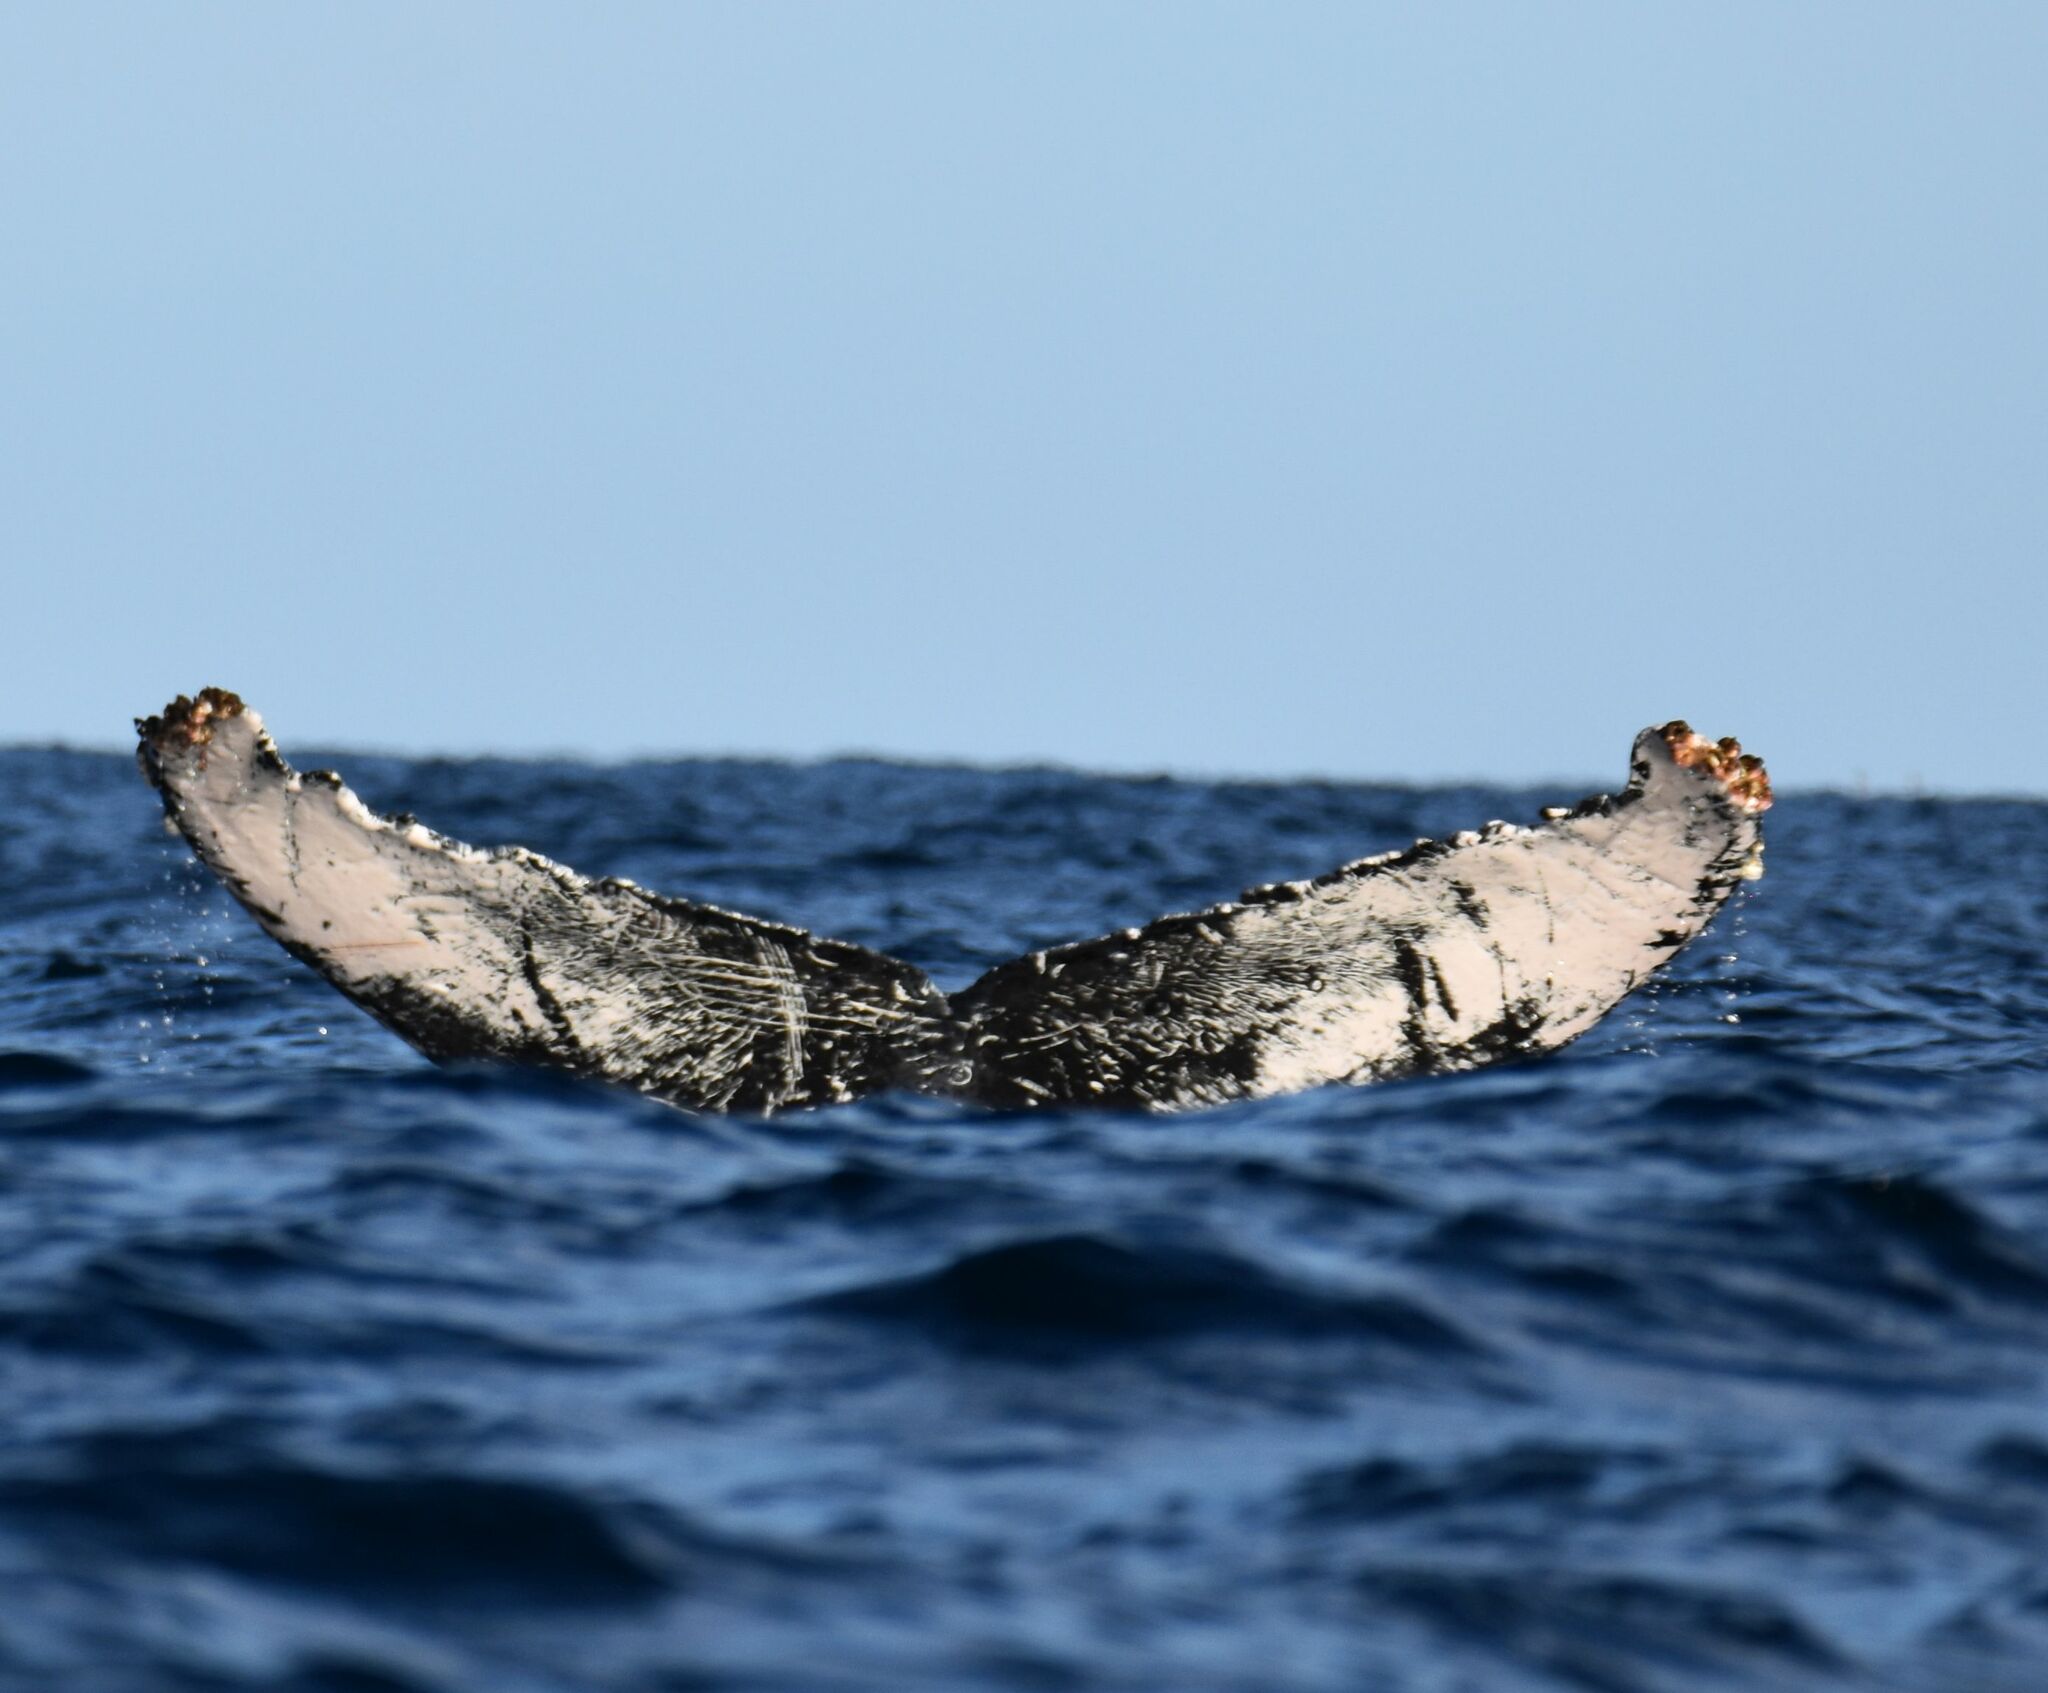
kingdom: Animalia
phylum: Chordata
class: Mammalia
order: Cetacea
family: Balaenopteridae
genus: Megaptera
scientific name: Megaptera novaeangliae
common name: Humpback whale
